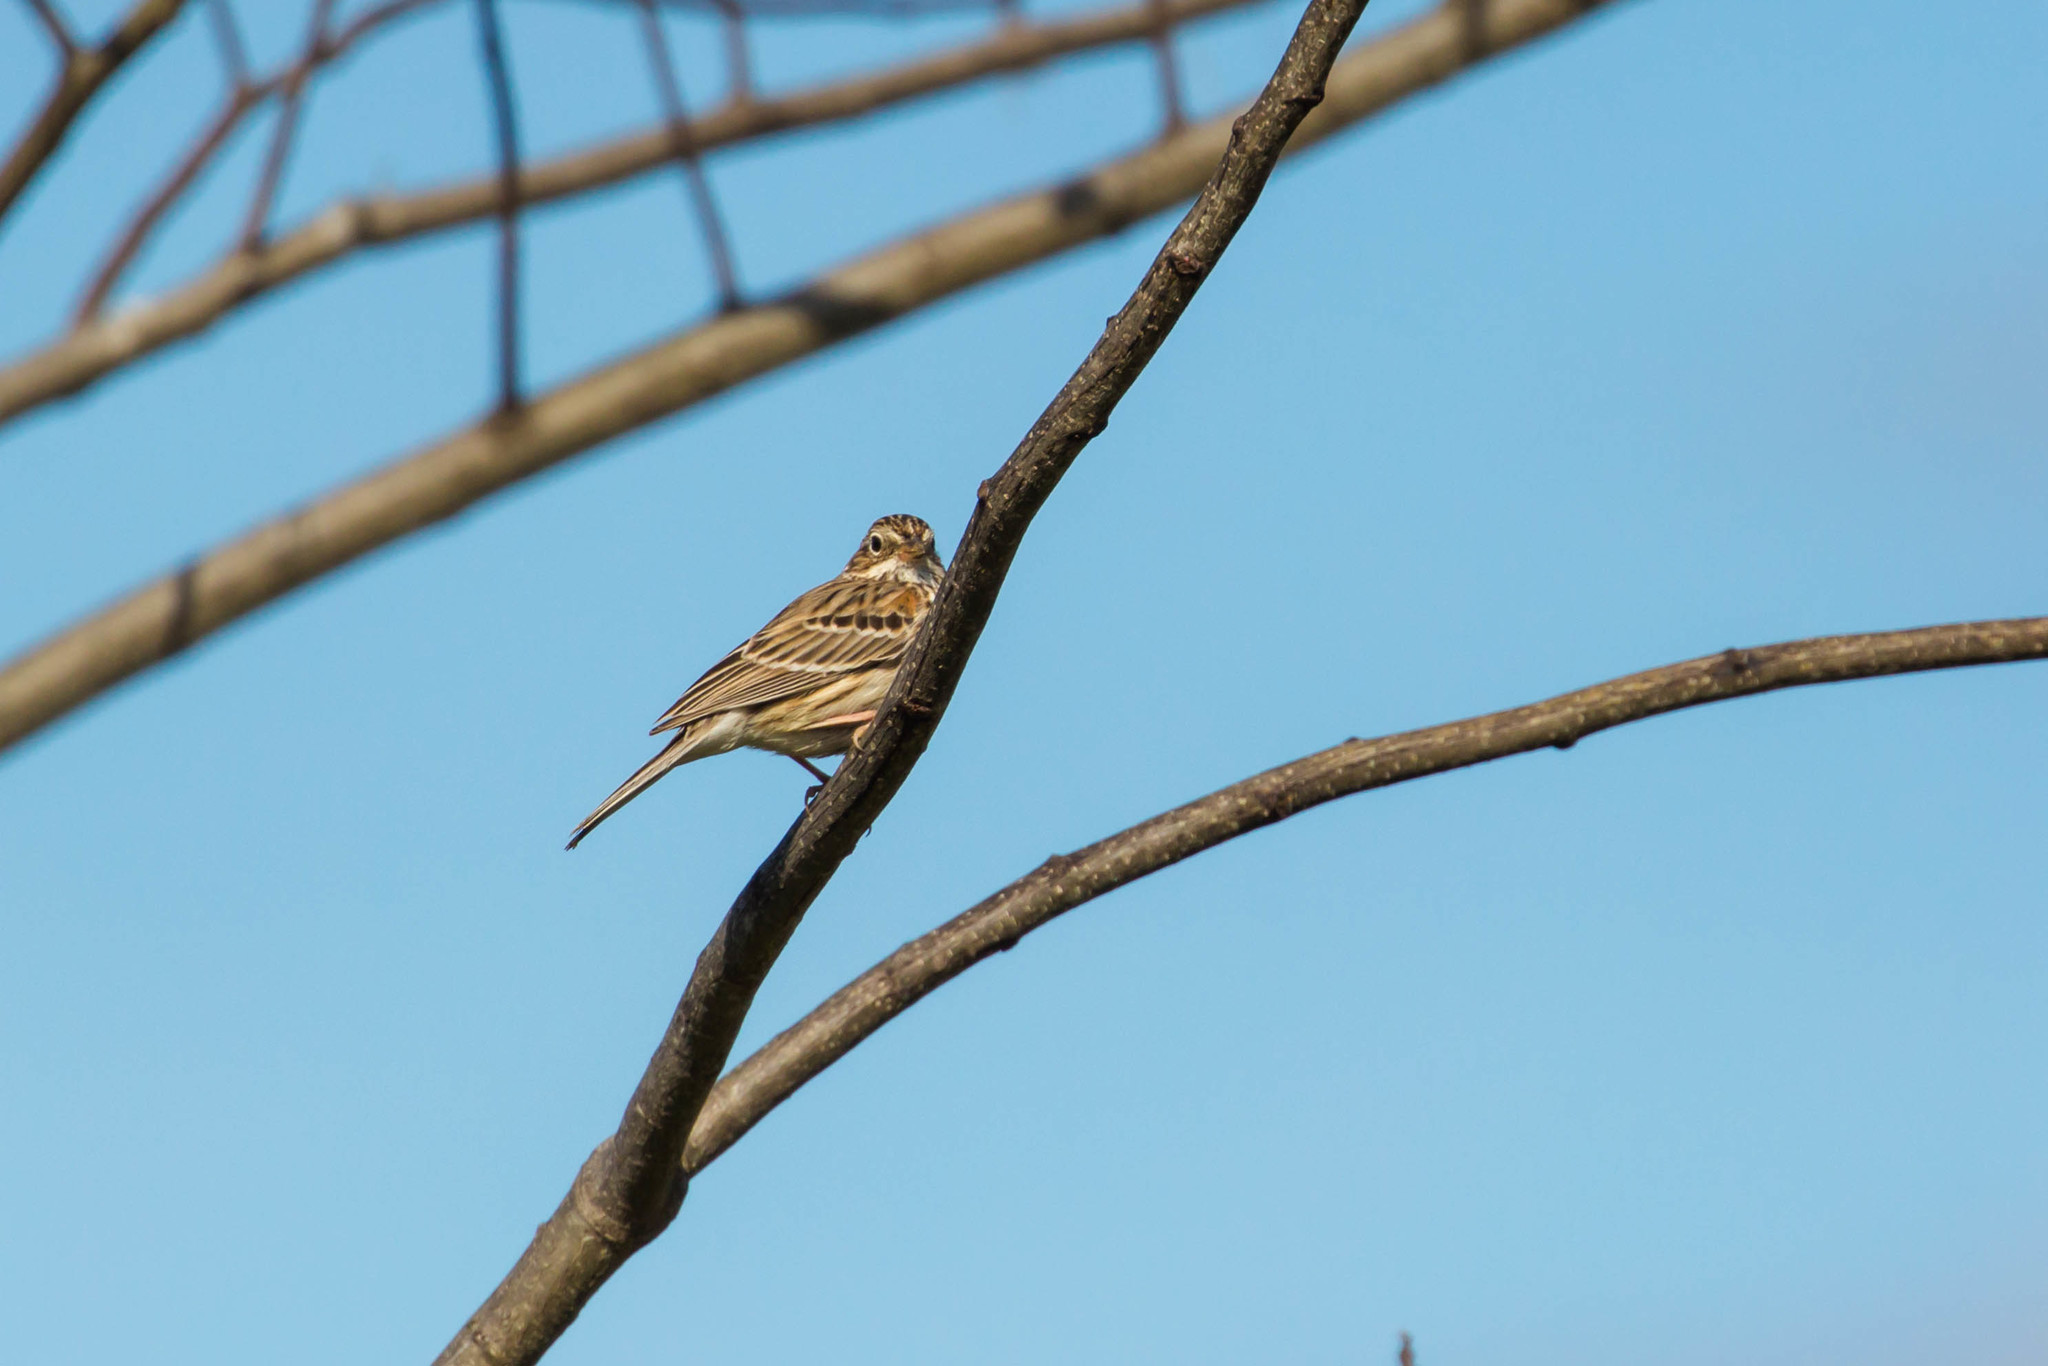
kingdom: Animalia
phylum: Chordata
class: Aves
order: Passeriformes
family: Passerellidae
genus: Pooecetes
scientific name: Pooecetes gramineus
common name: Vesper sparrow
